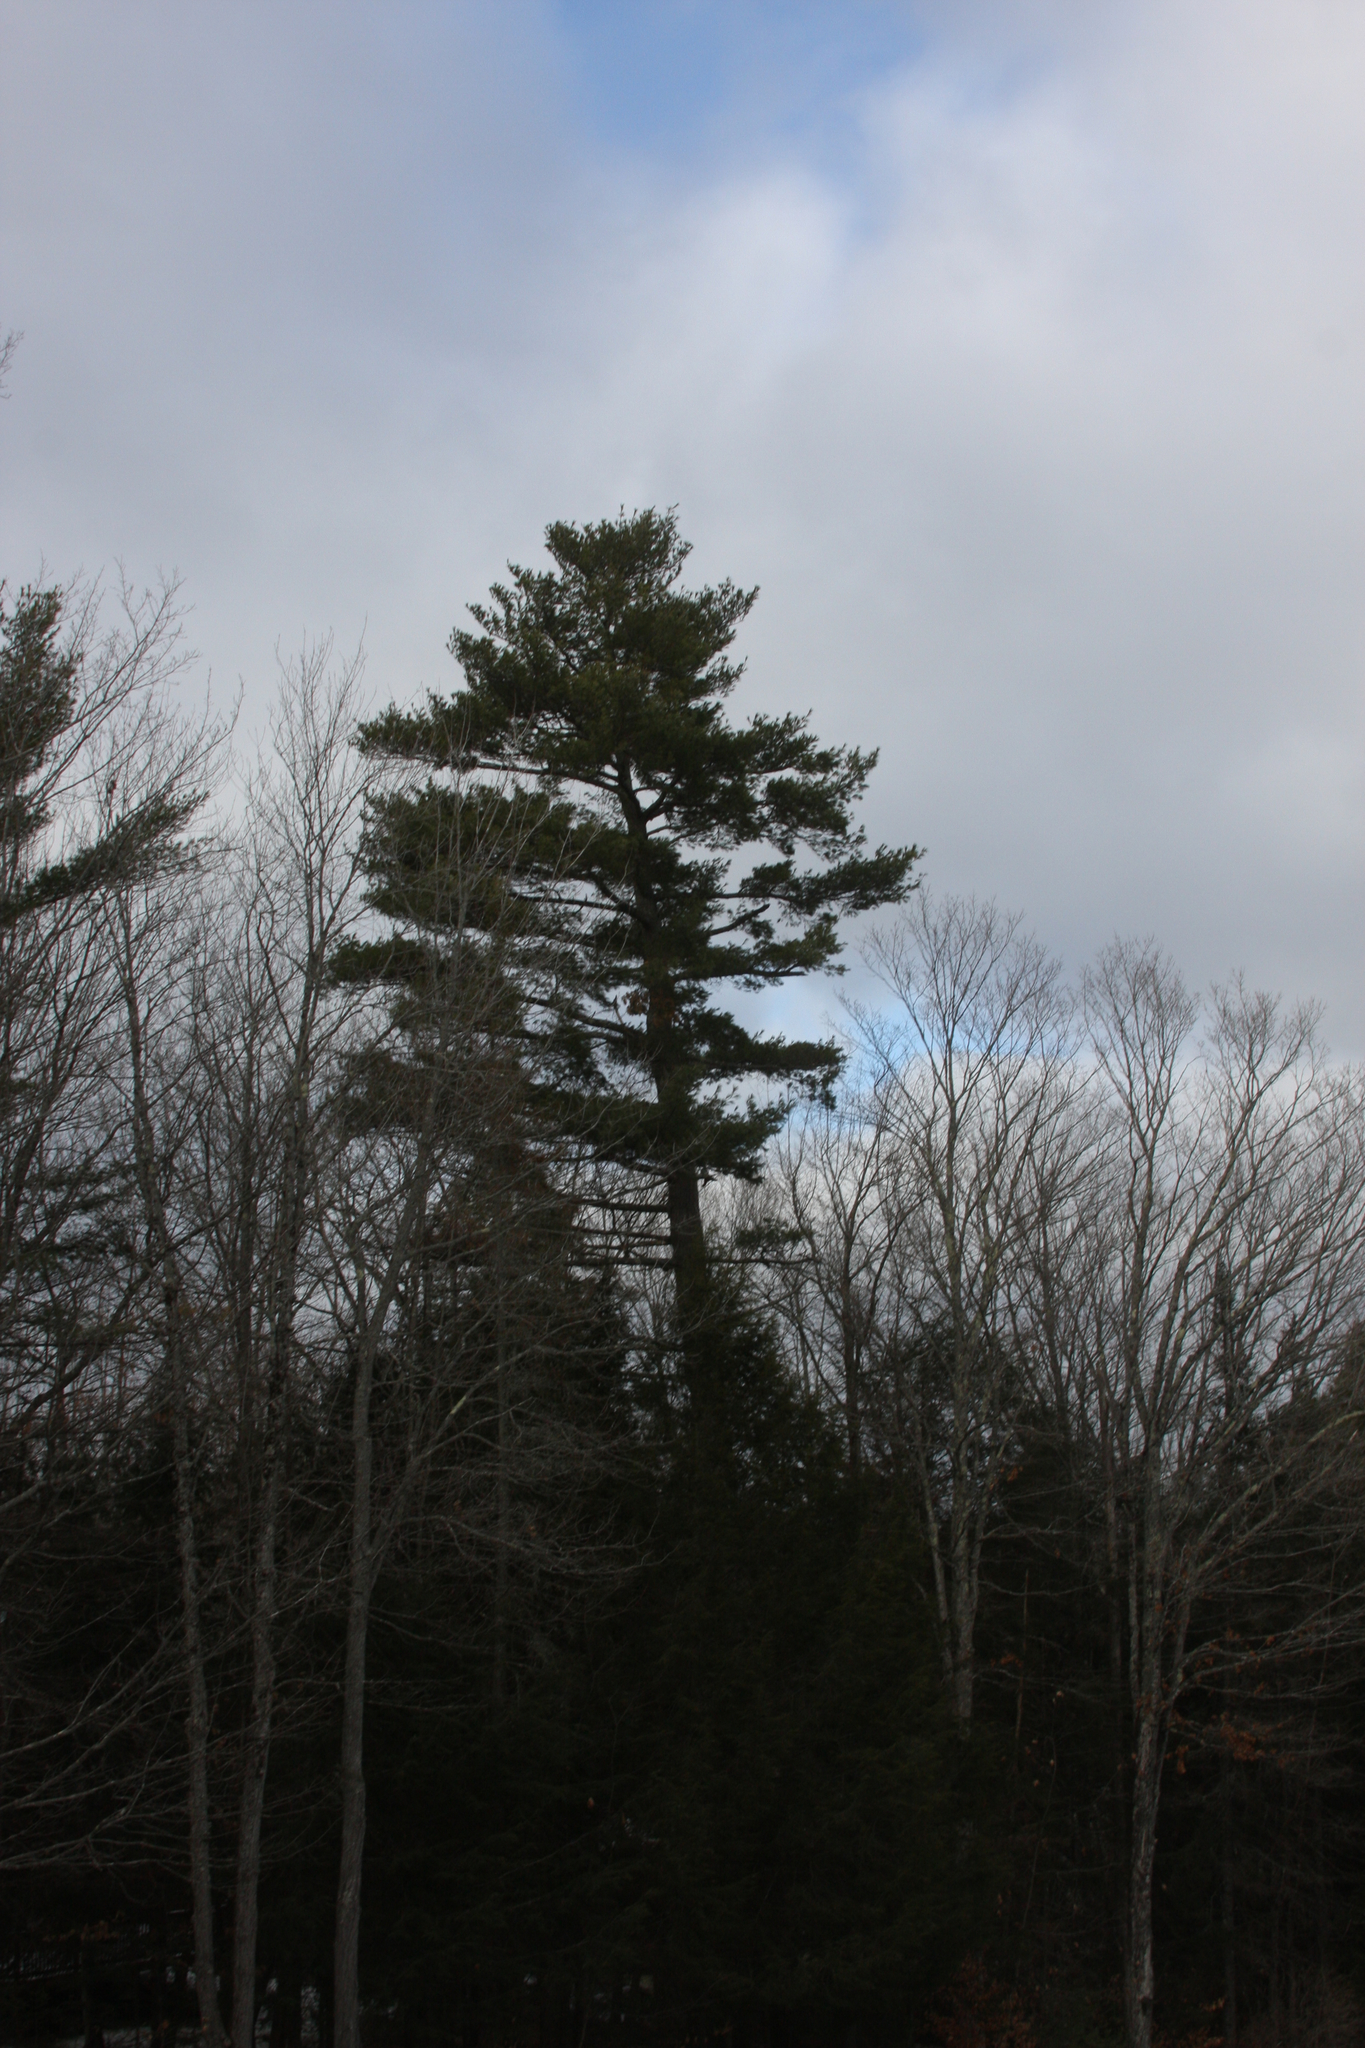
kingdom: Plantae
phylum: Tracheophyta
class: Pinopsida
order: Pinales
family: Pinaceae
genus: Pinus
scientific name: Pinus strobus
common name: Weymouth pine
